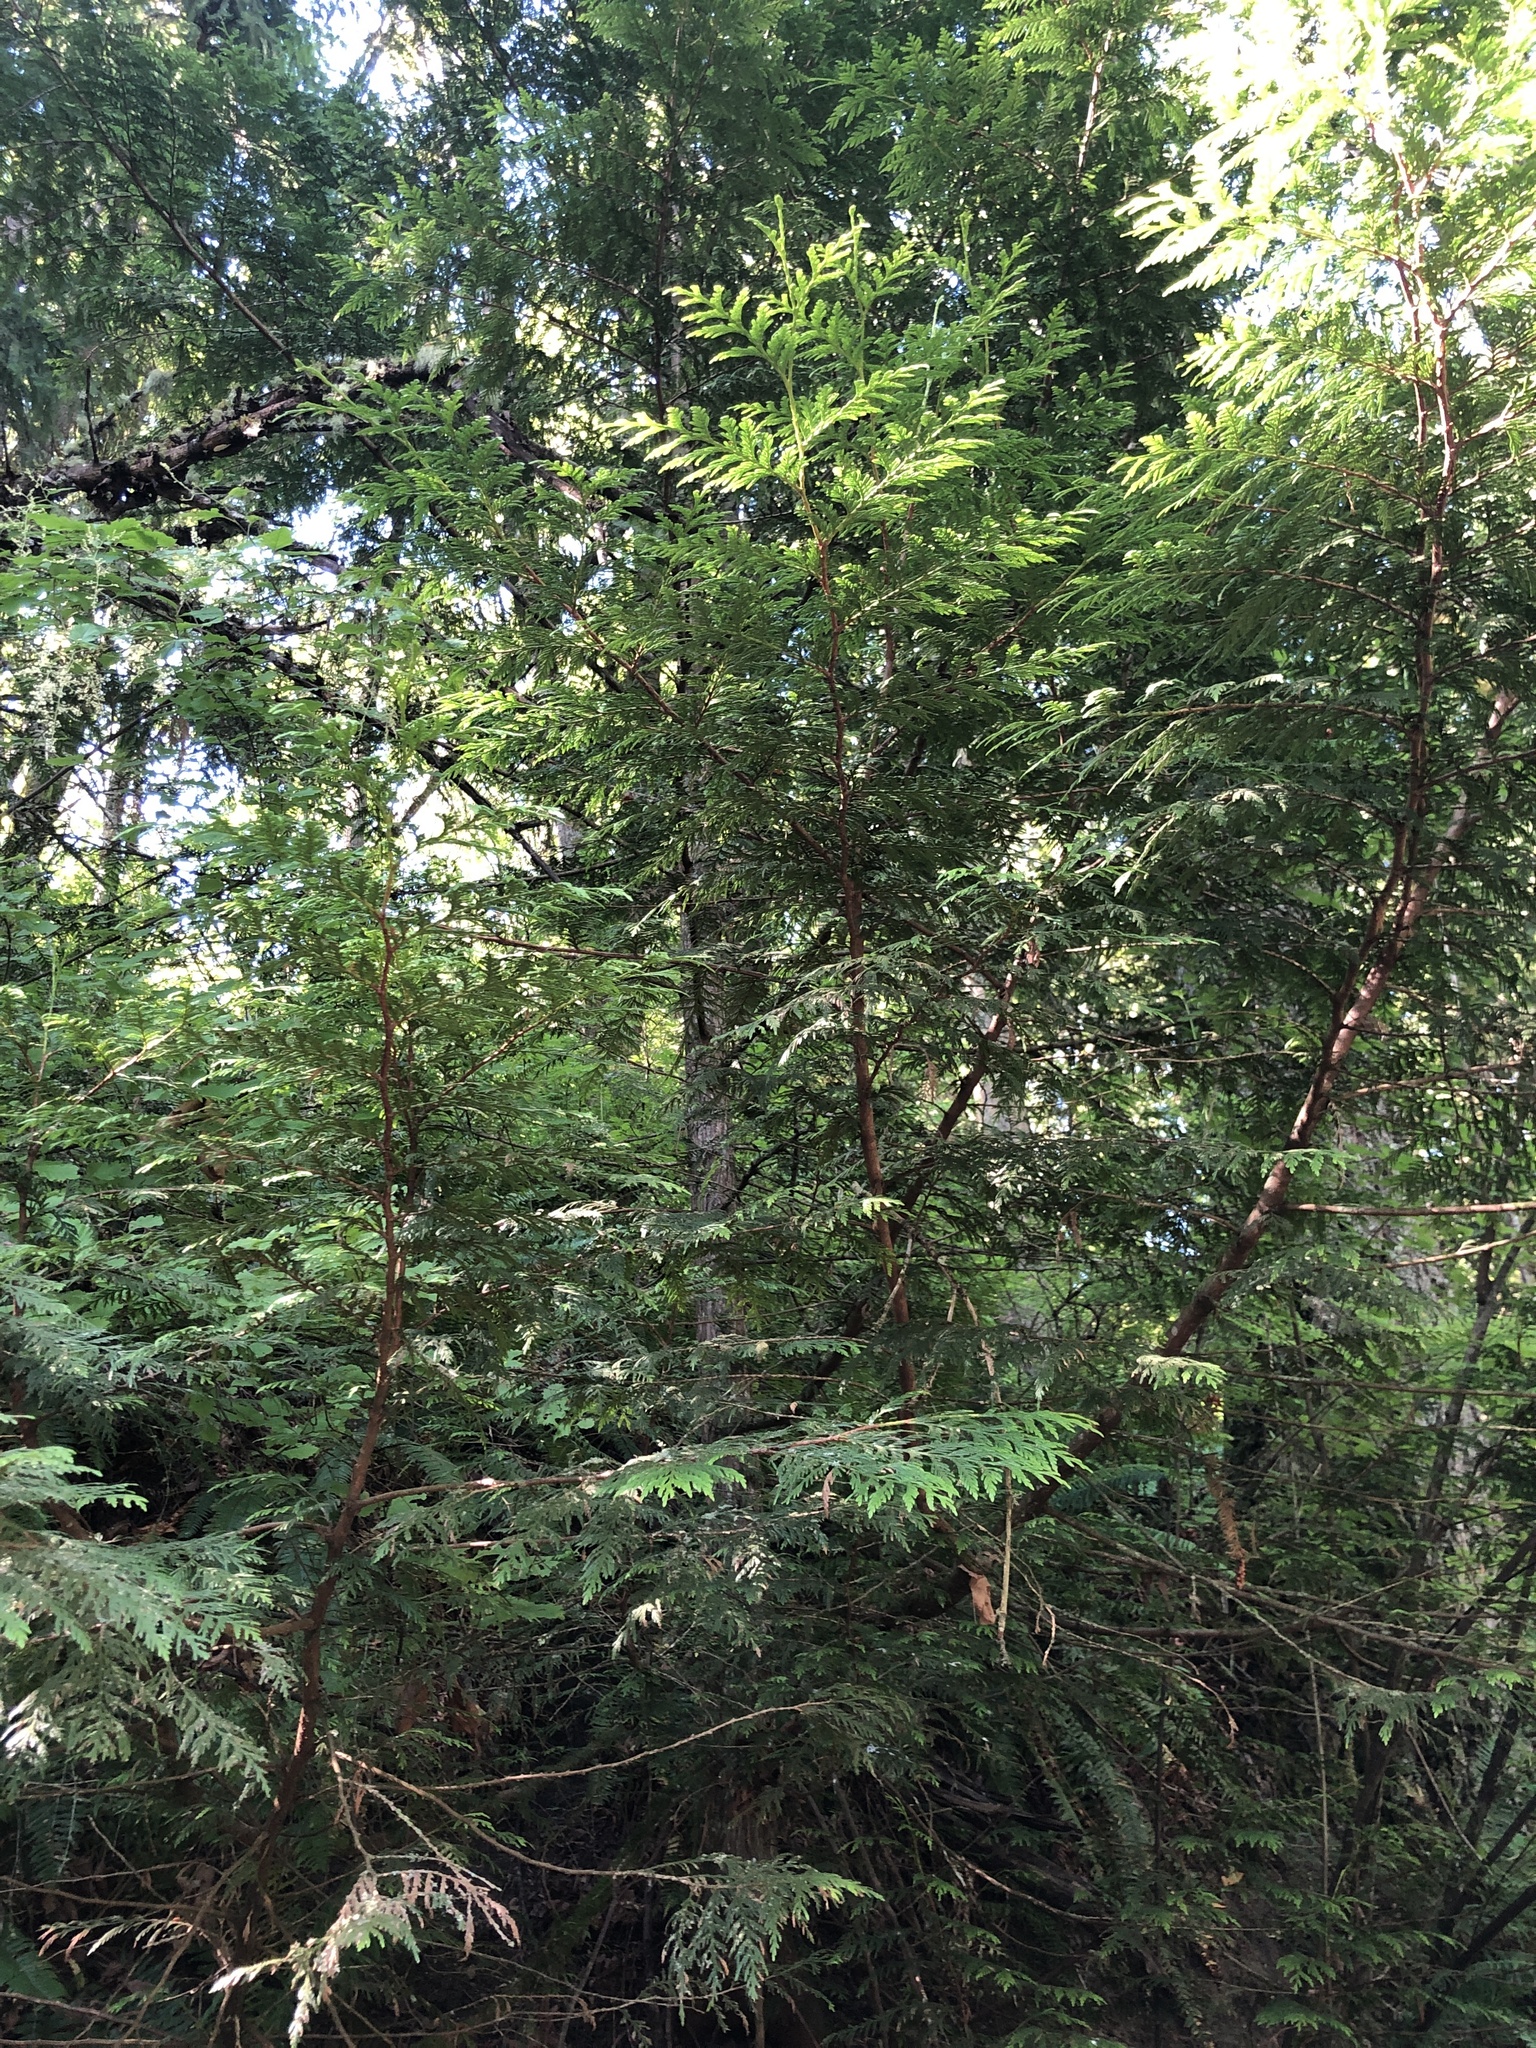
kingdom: Plantae
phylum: Tracheophyta
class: Pinopsida
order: Pinales
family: Cupressaceae
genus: Thuja
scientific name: Thuja plicata
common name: Western red-cedar
